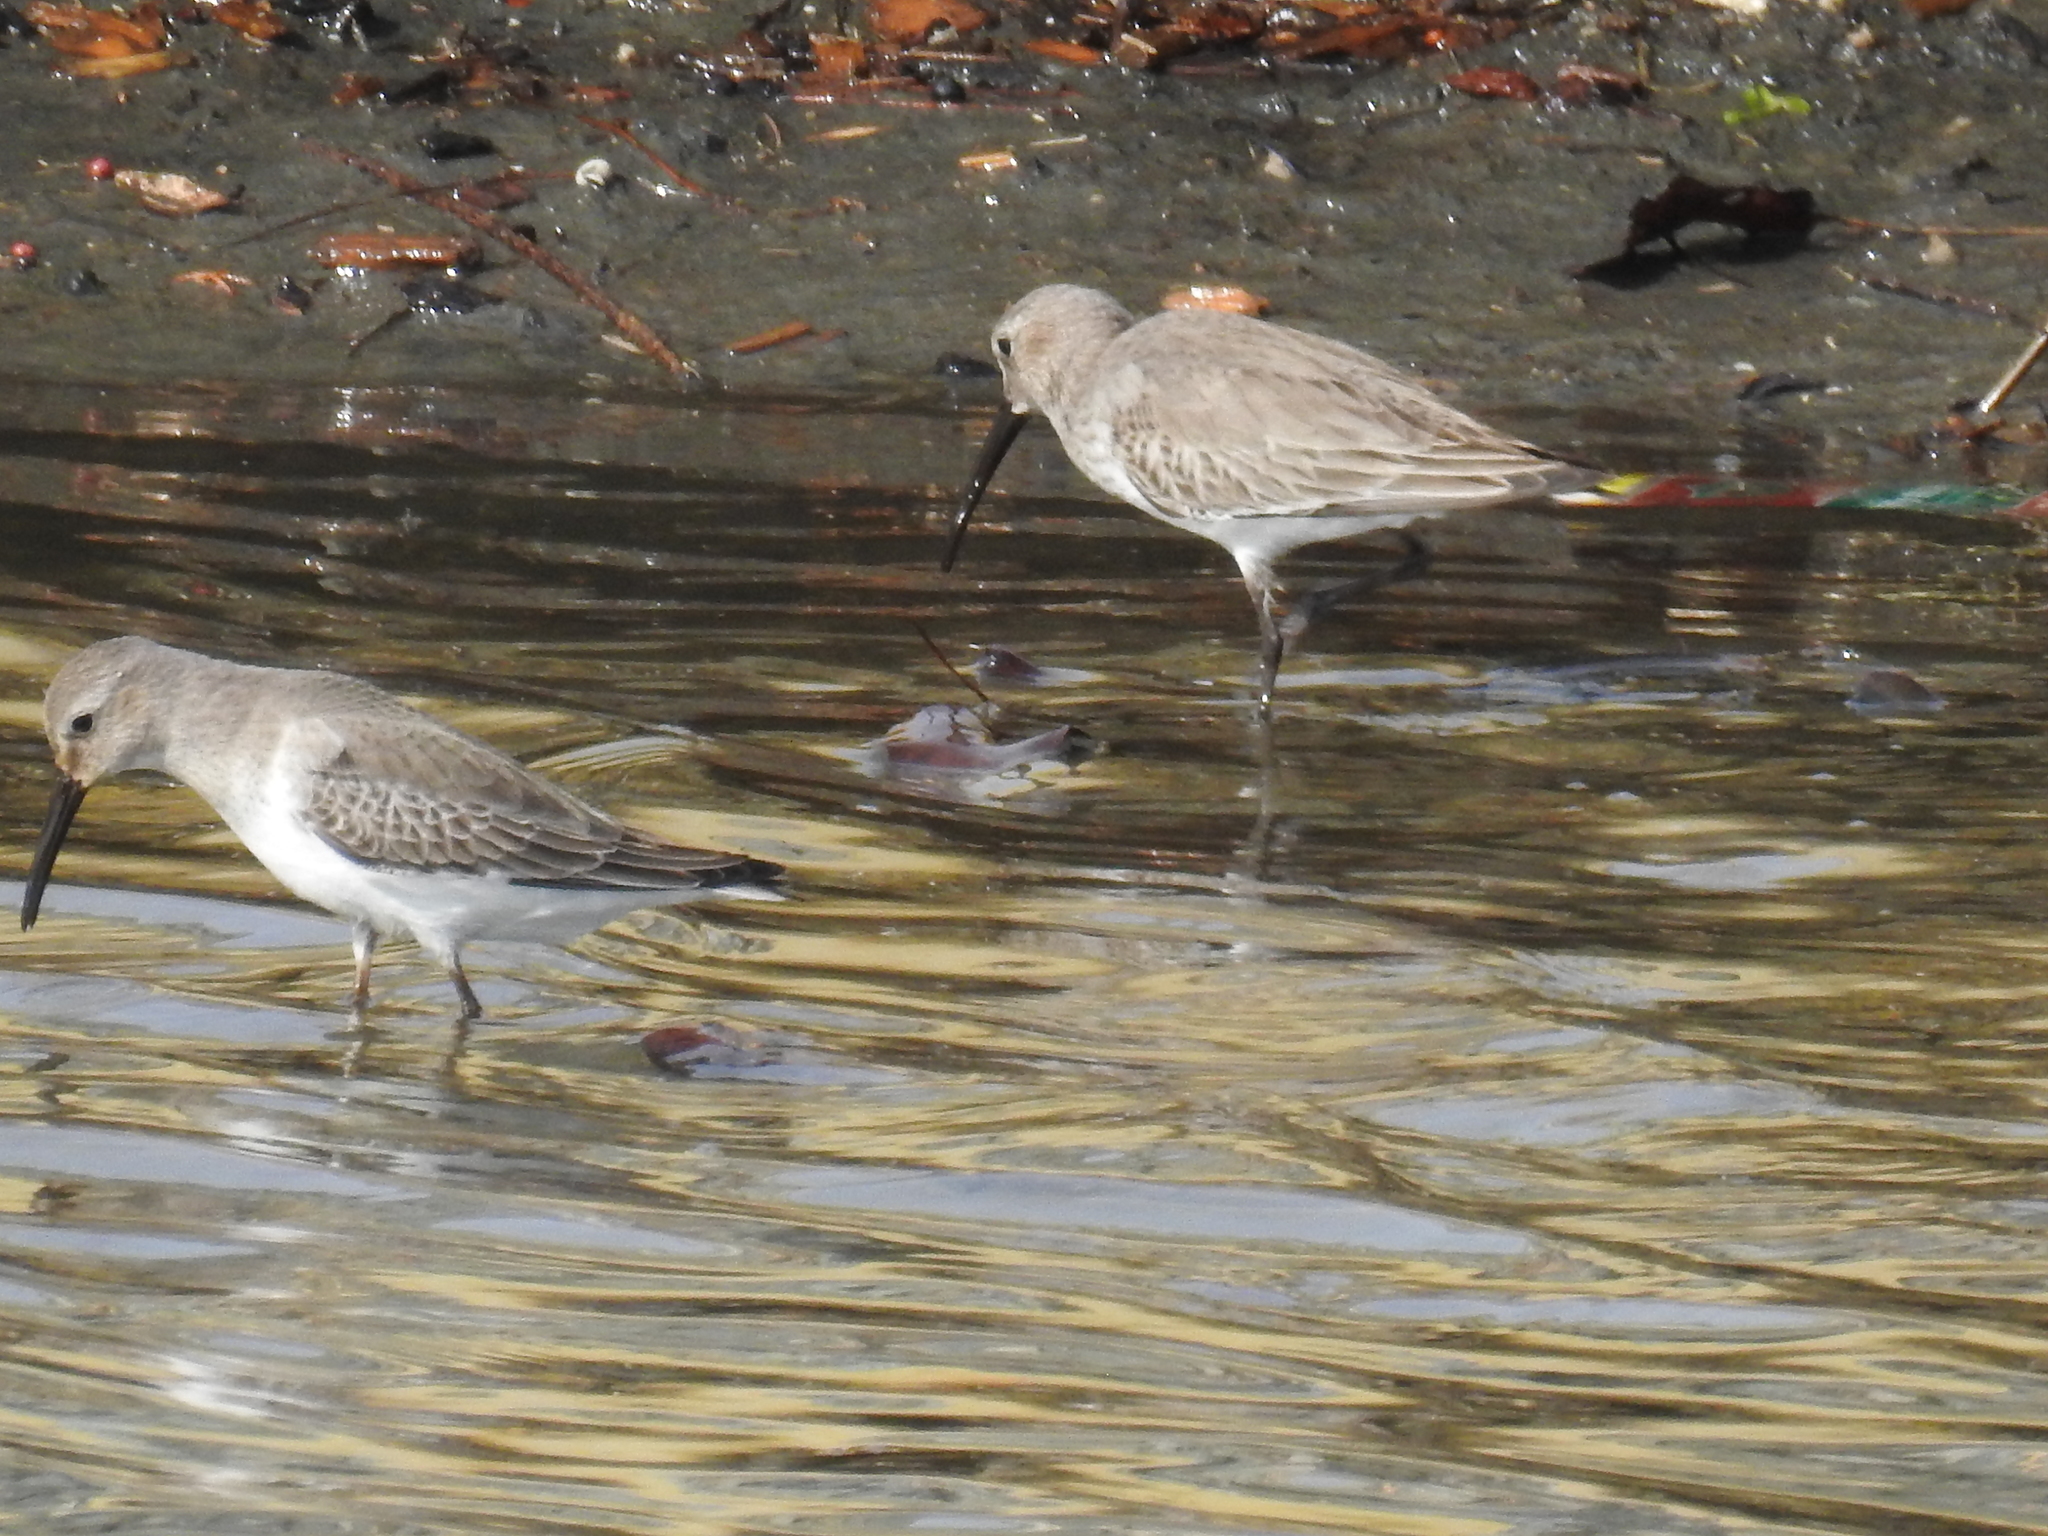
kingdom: Animalia
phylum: Chordata
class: Aves
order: Charadriiformes
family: Scolopacidae
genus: Calidris
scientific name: Calidris alpina
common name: Dunlin
